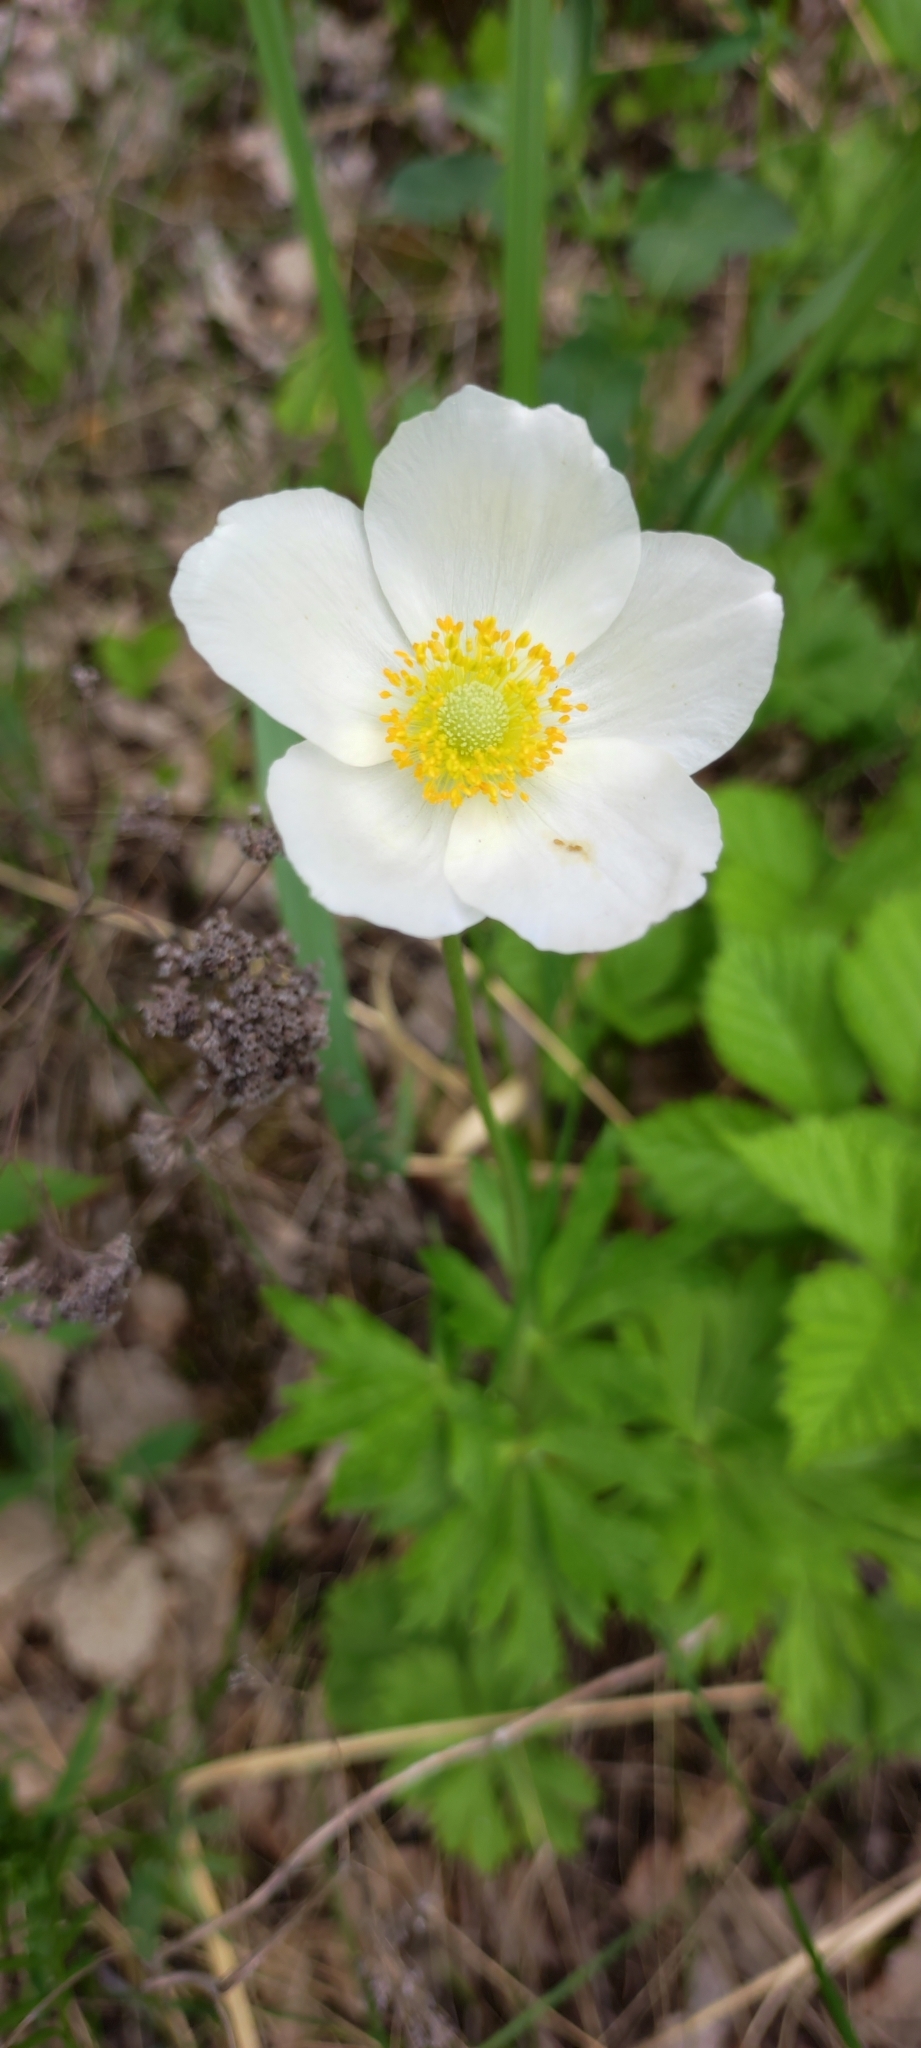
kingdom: Plantae
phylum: Tracheophyta
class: Magnoliopsida
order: Ranunculales
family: Ranunculaceae
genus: Anemone
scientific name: Anemone sylvestris
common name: Snowdrop anemone
